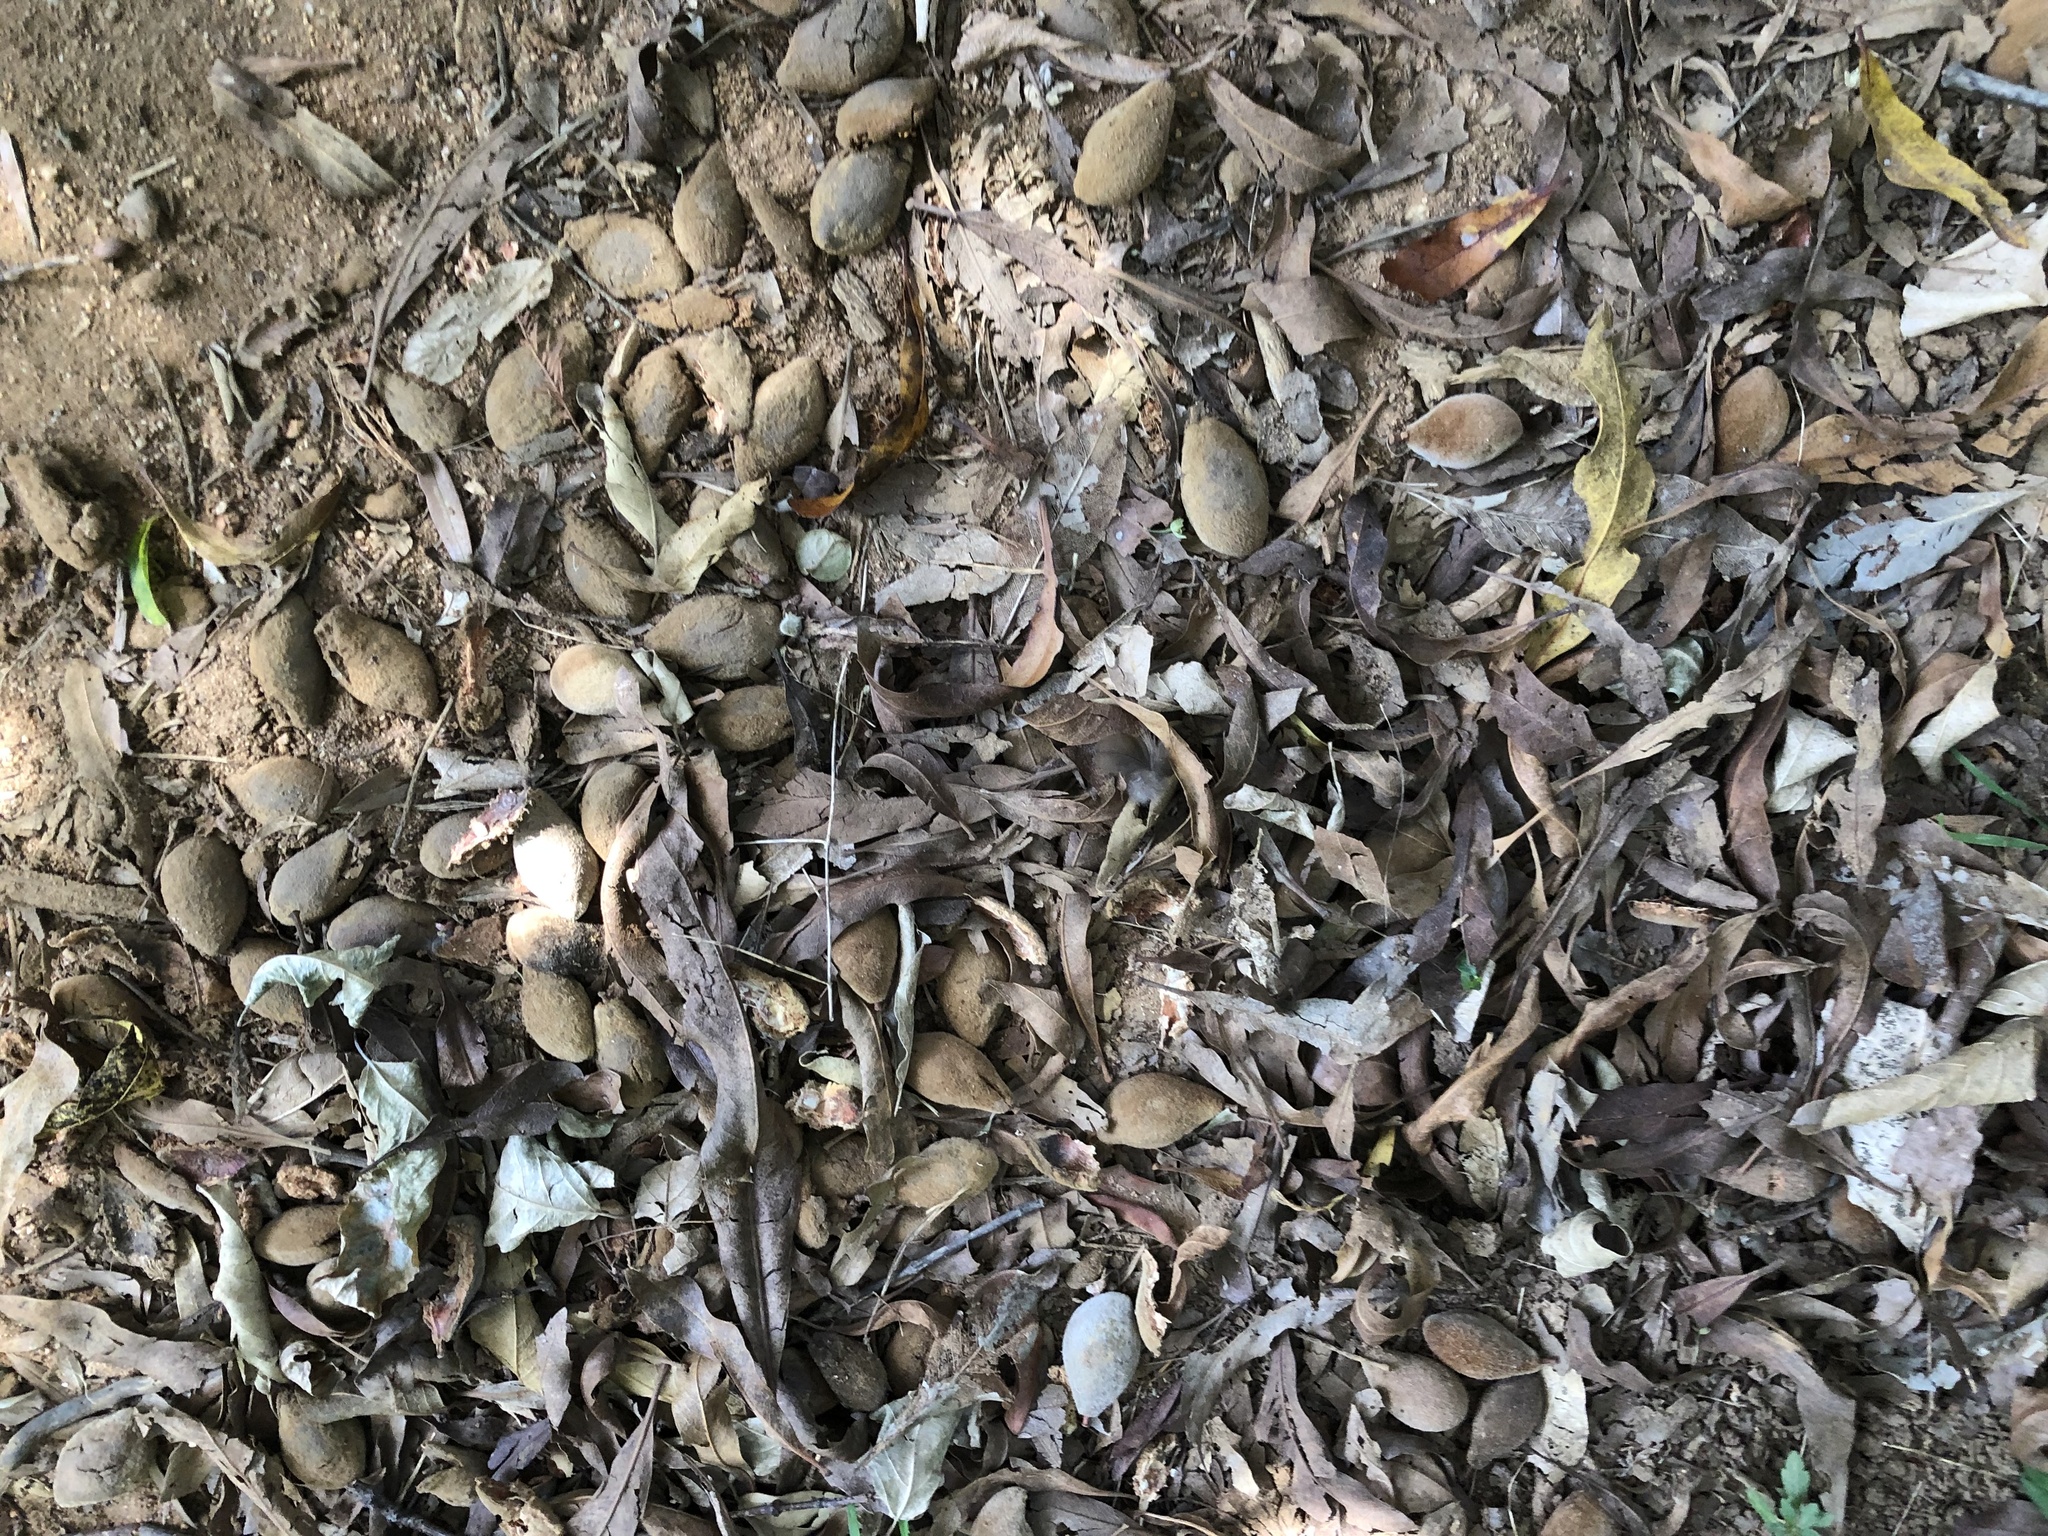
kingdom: Plantae
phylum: Tracheophyta
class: Magnoliopsida
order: Proteales
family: Proteaceae
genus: Brabejum
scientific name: Brabejum stellatifolium
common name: Wild almond
